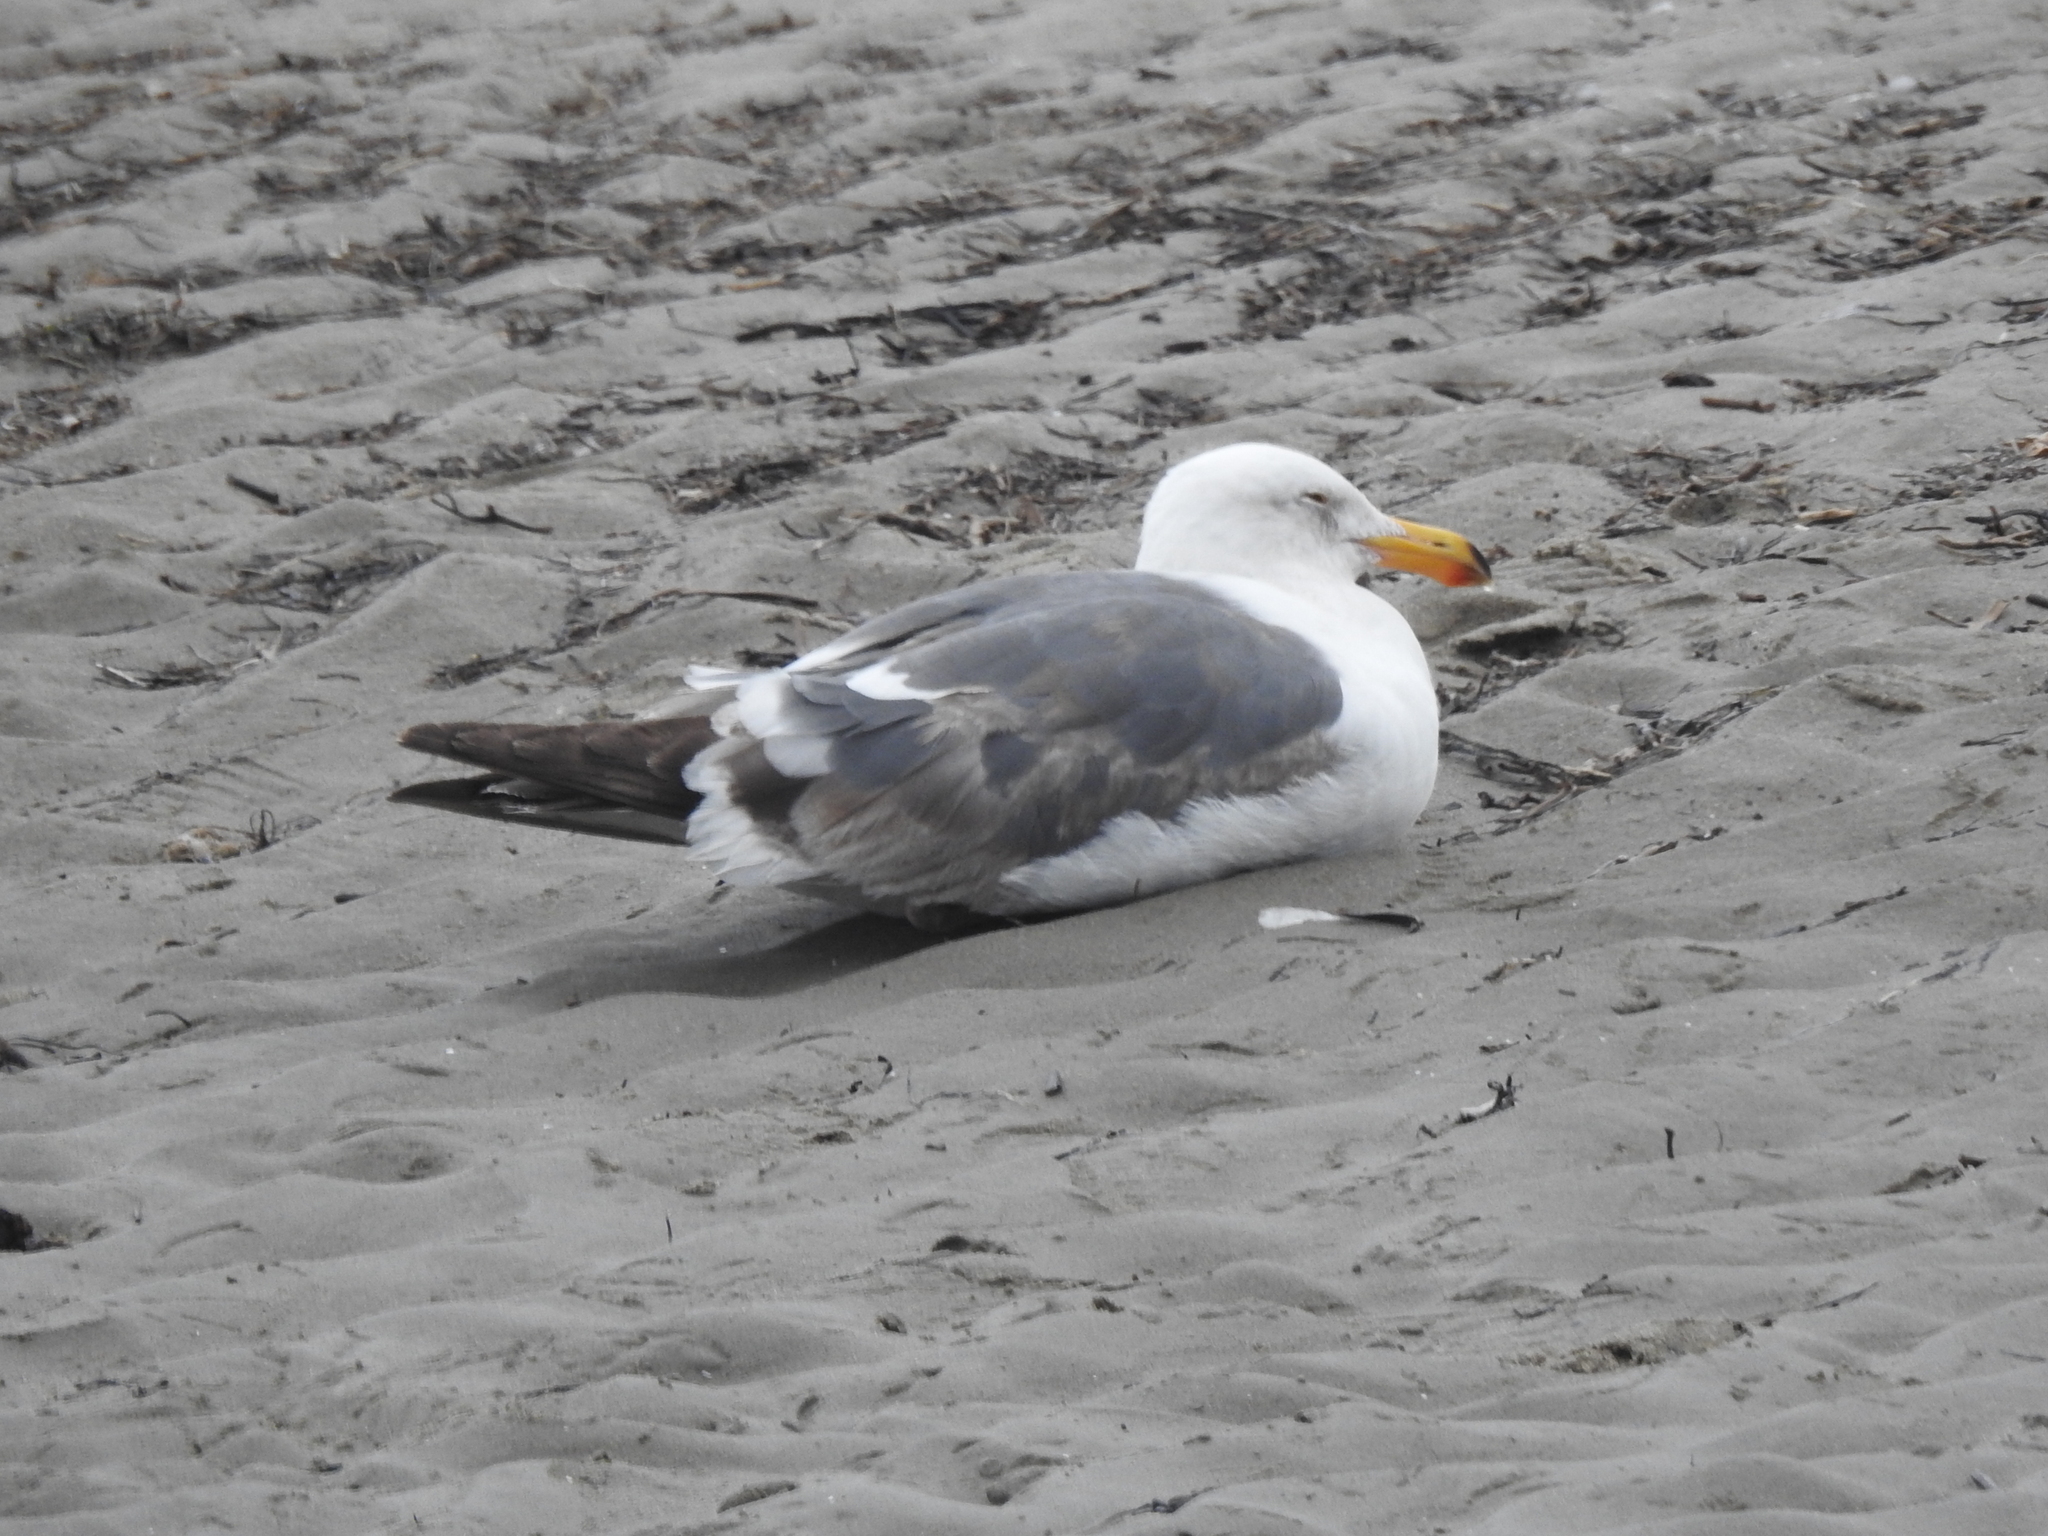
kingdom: Animalia
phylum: Chordata
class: Aves
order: Charadriiformes
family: Laridae
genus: Larus
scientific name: Larus occidentalis
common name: Western gull
